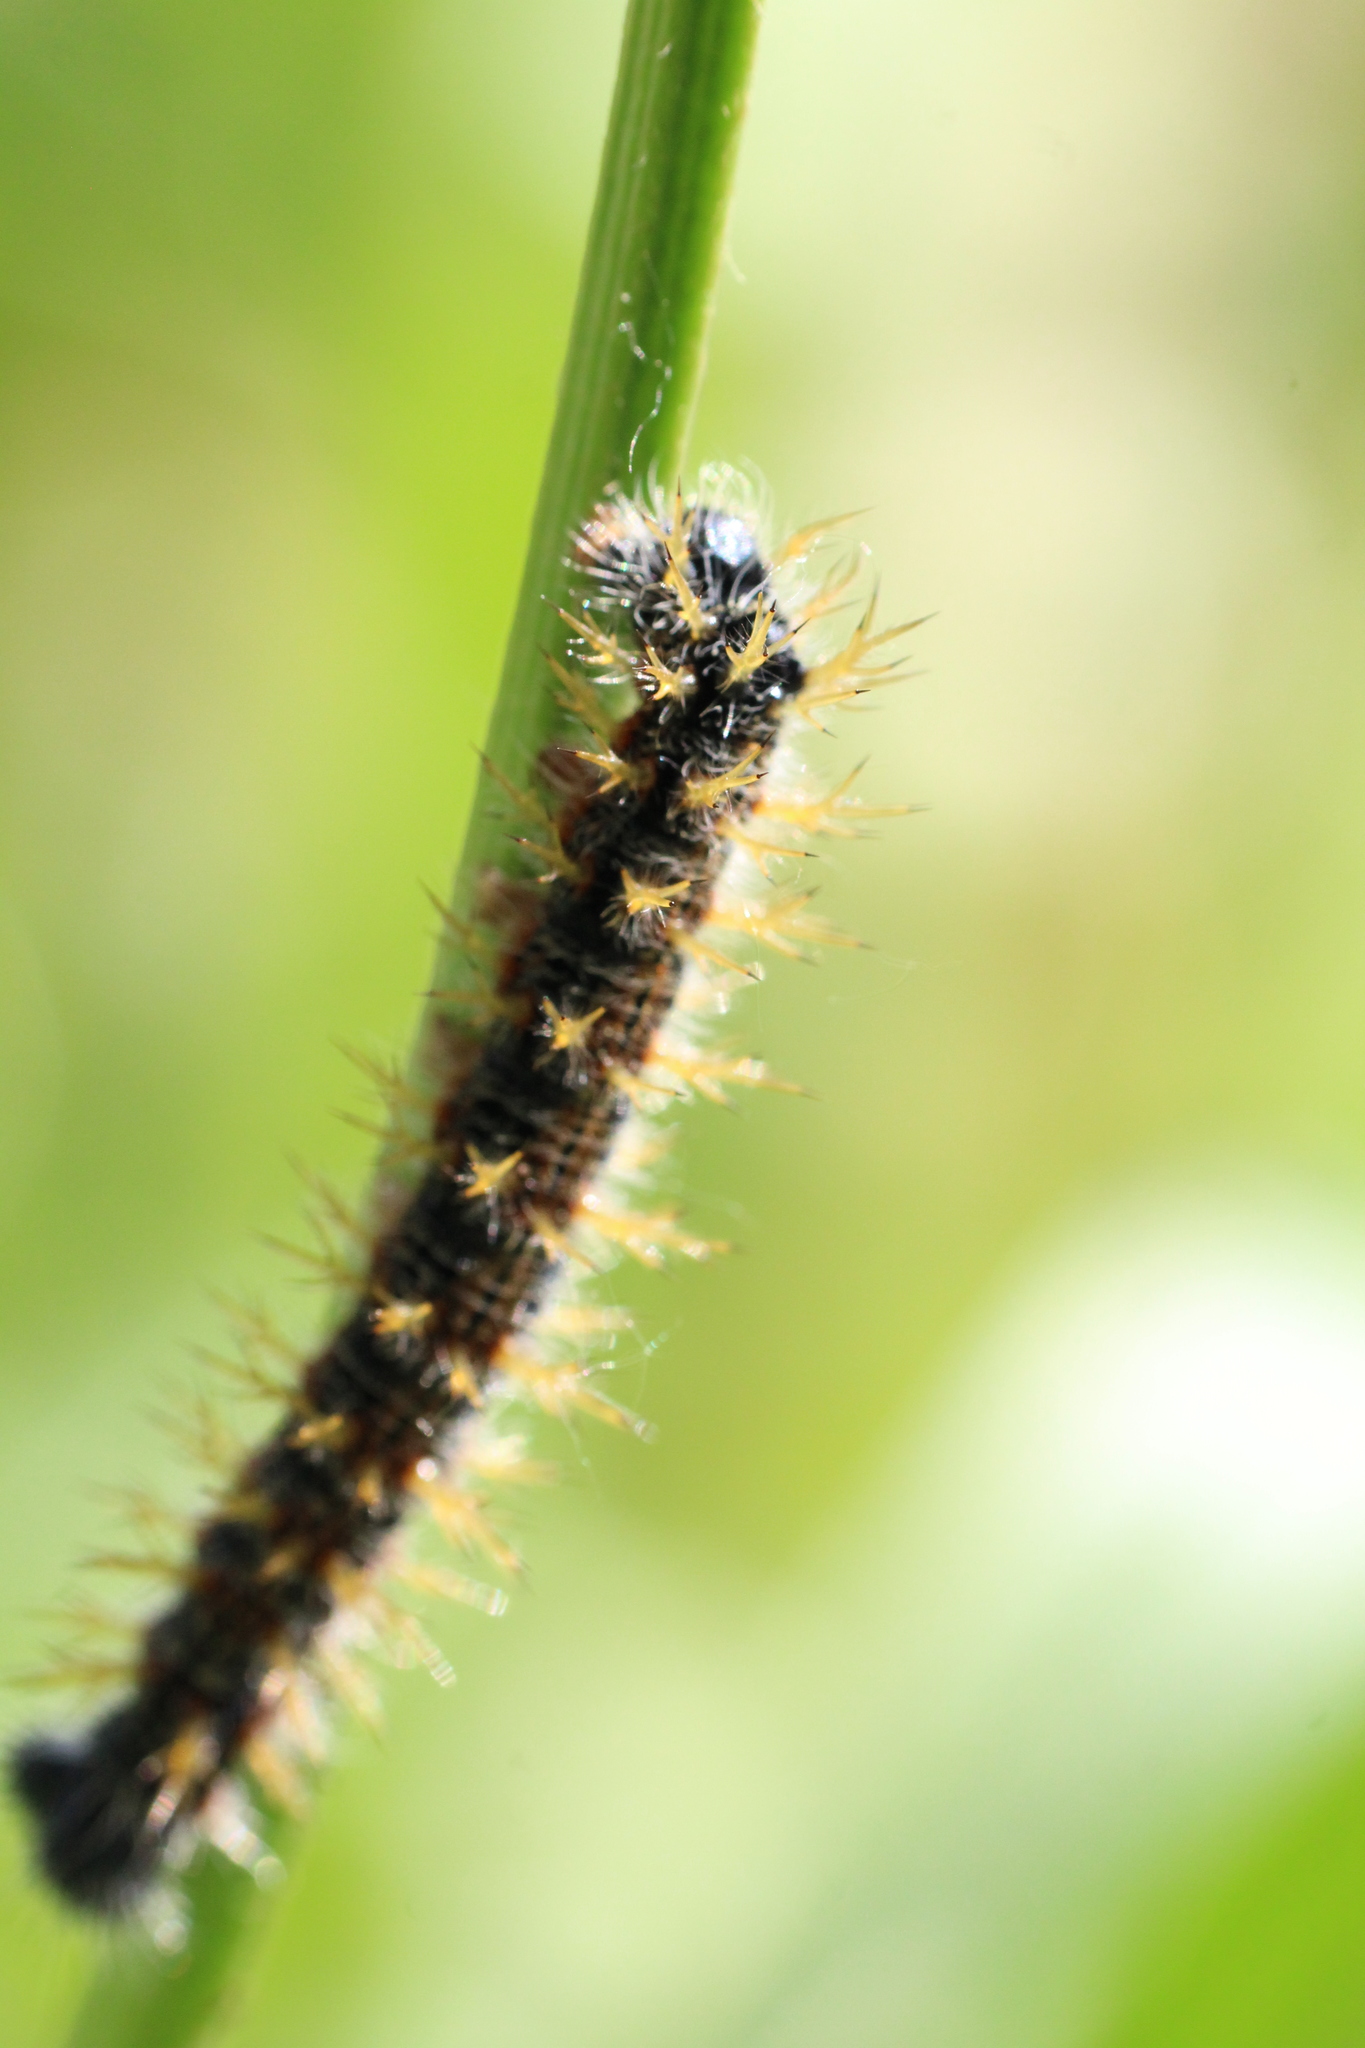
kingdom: Animalia
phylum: Arthropoda
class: Insecta
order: Lepidoptera
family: Nymphalidae
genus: Nymphalis
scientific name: Nymphalis polychloros
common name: Large tortoiseshell
